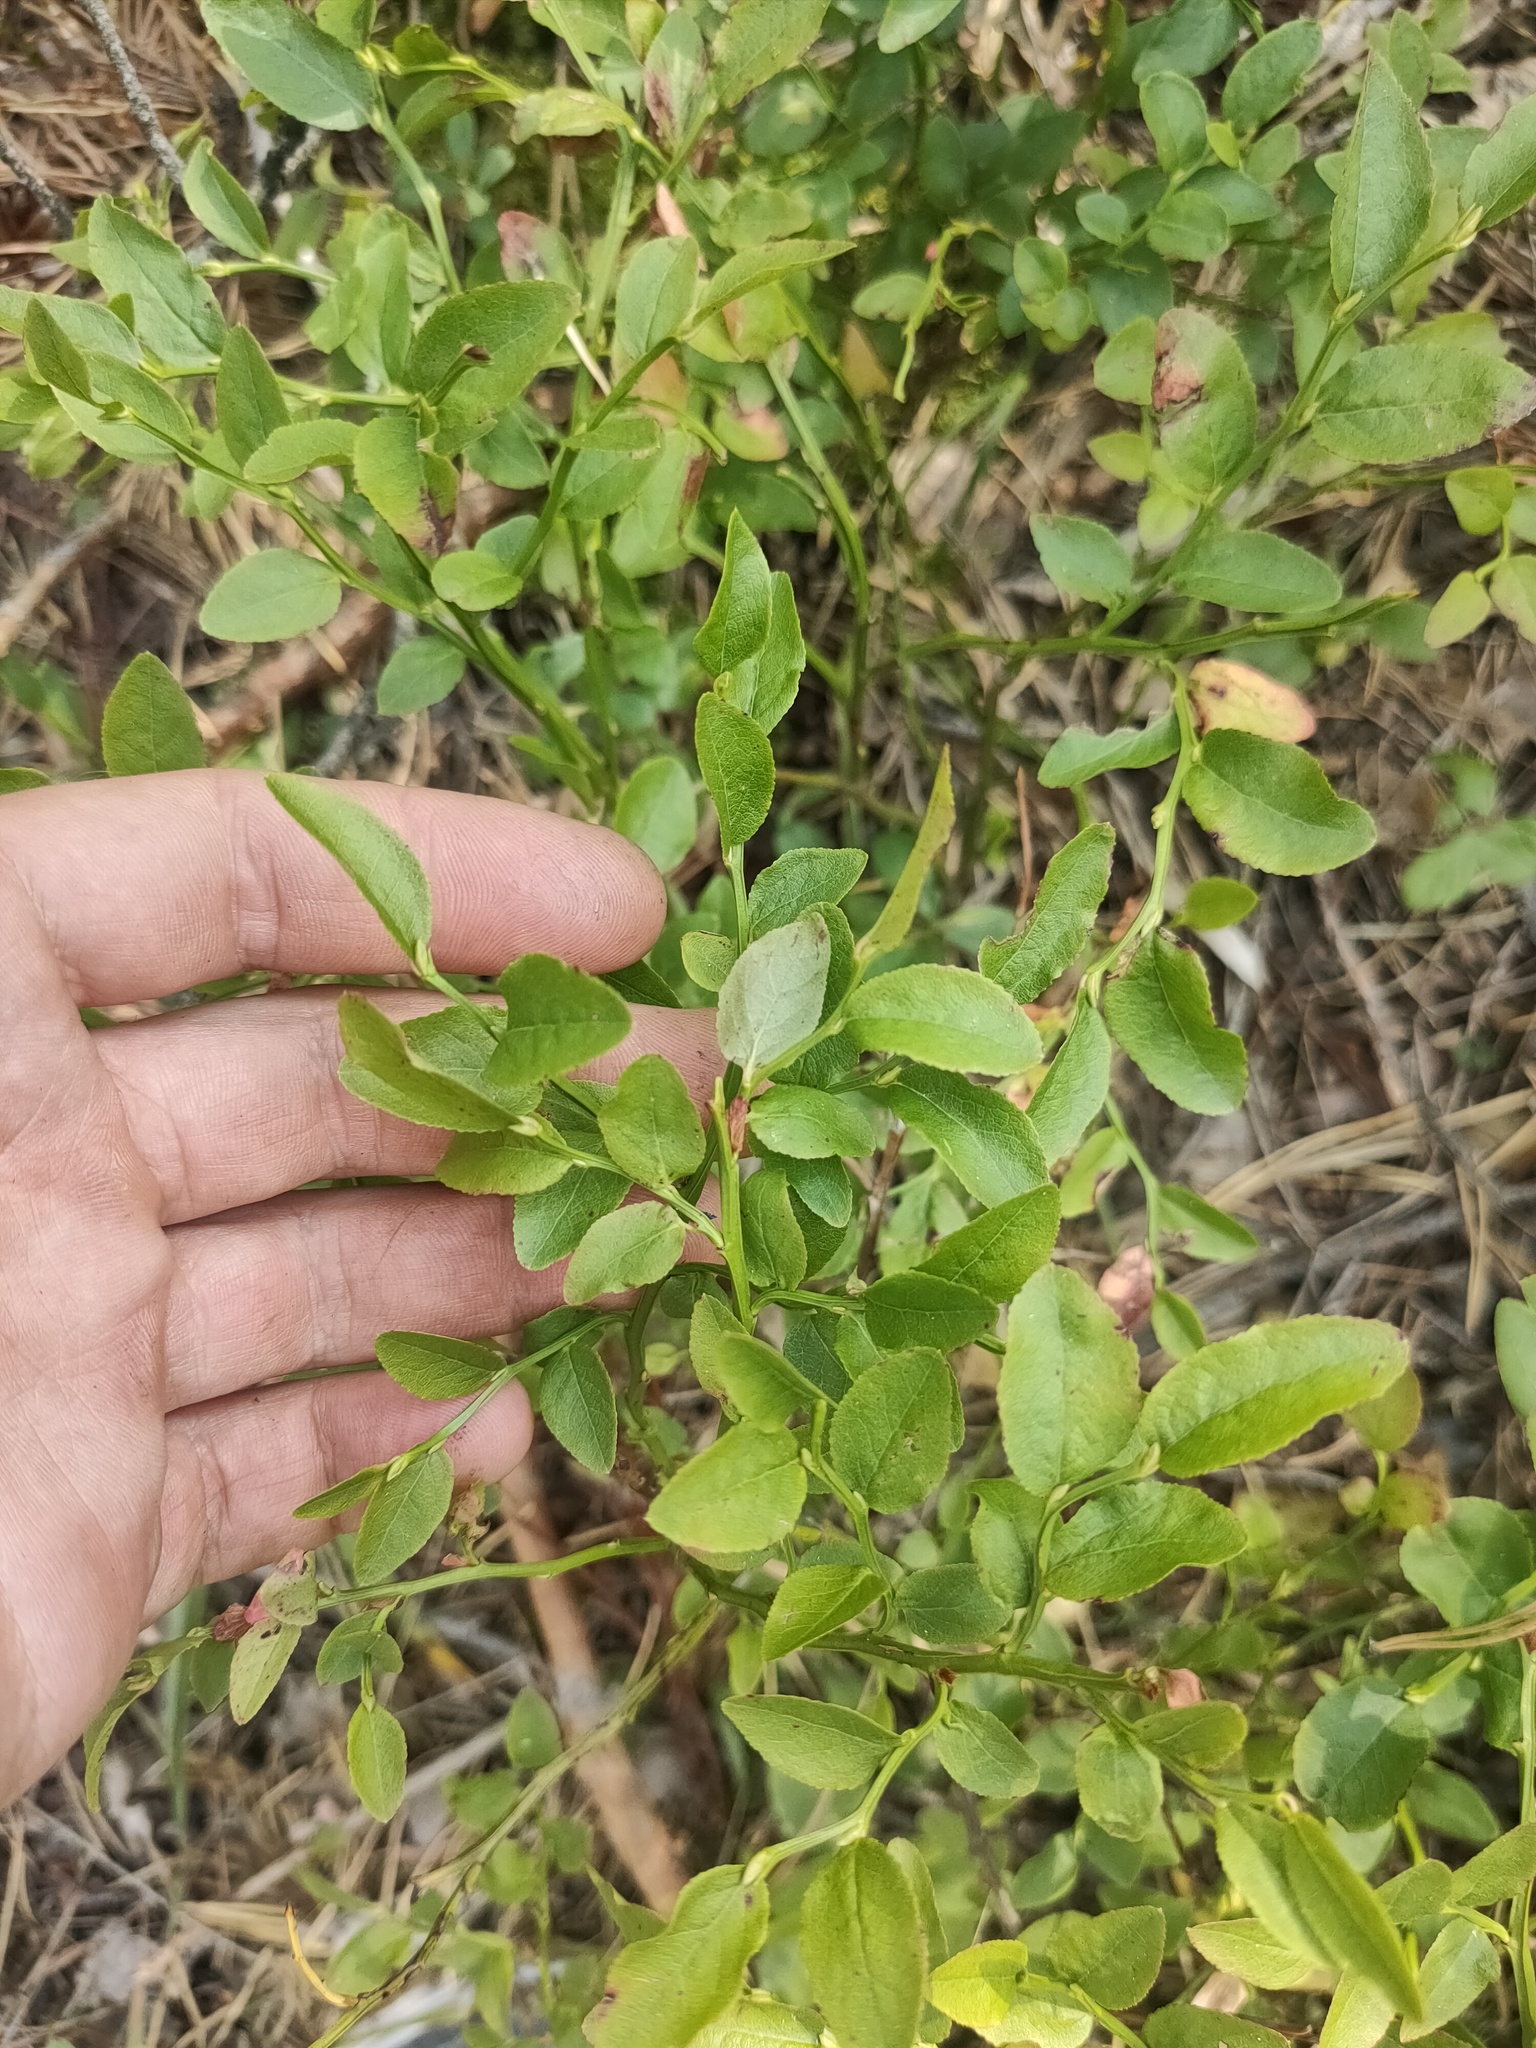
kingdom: Plantae
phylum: Tracheophyta
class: Magnoliopsida
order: Ericales
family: Ericaceae
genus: Vaccinium
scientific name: Vaccinium myrtillus
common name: Bilberry
